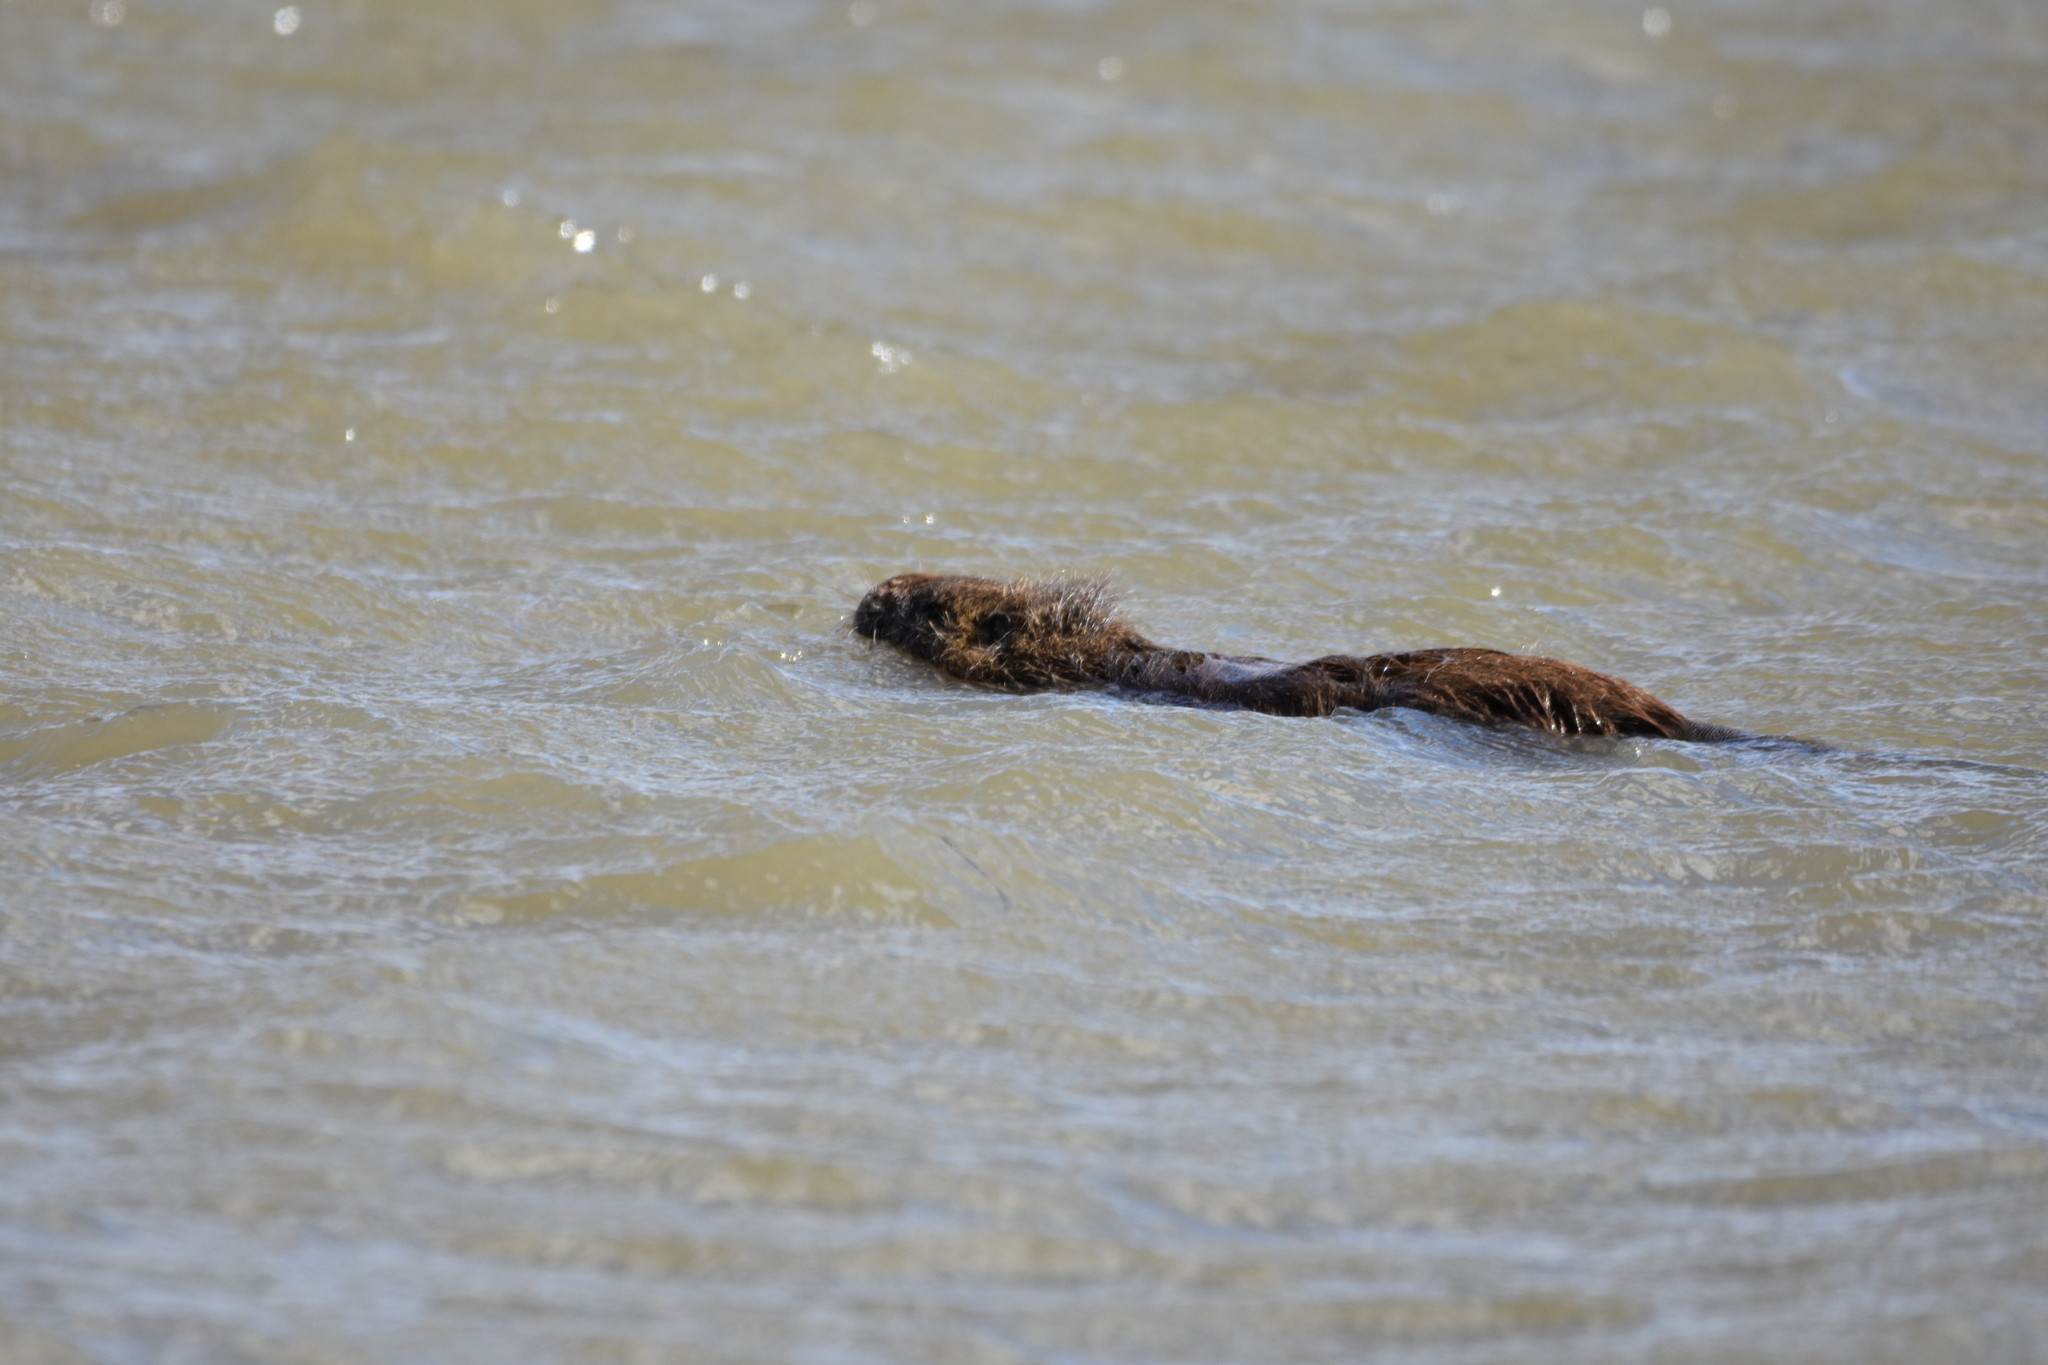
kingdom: Animalia
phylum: Chordata
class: Mammalia
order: Rodentia
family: Myocastoridae
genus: Myocastor
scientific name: Myocastor coypus
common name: Coypu
